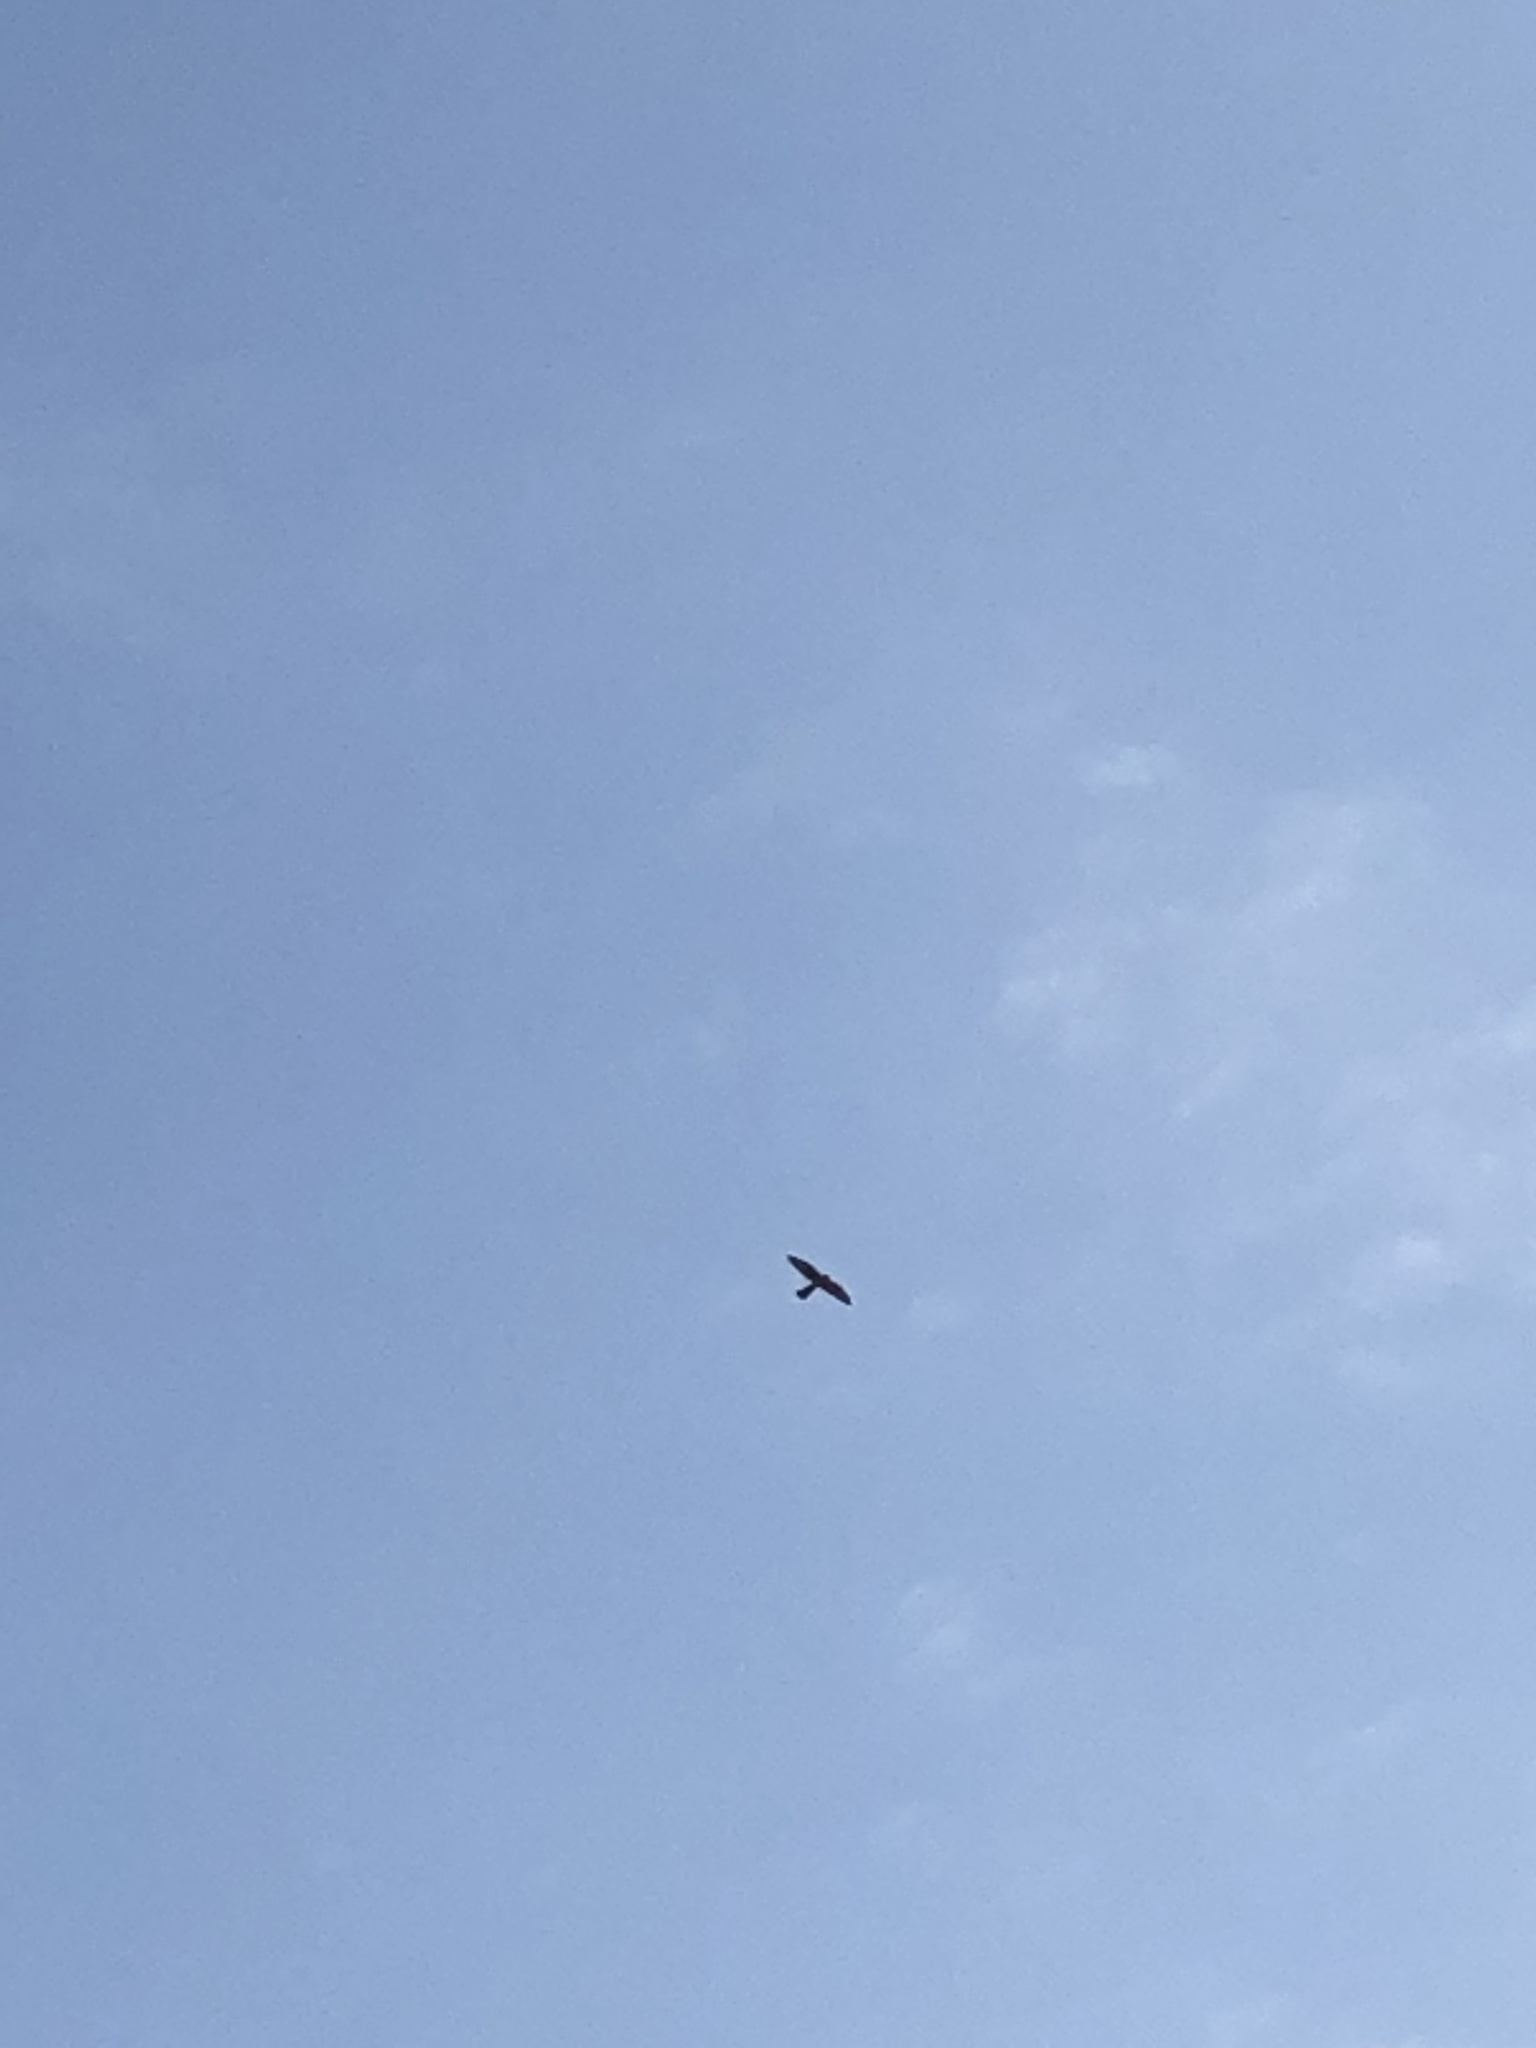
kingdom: Animalia
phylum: Chordata
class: Aves
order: Falconiformes
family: Falconidae
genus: Falco
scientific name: Falco tinnunculus
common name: Common kestrel
